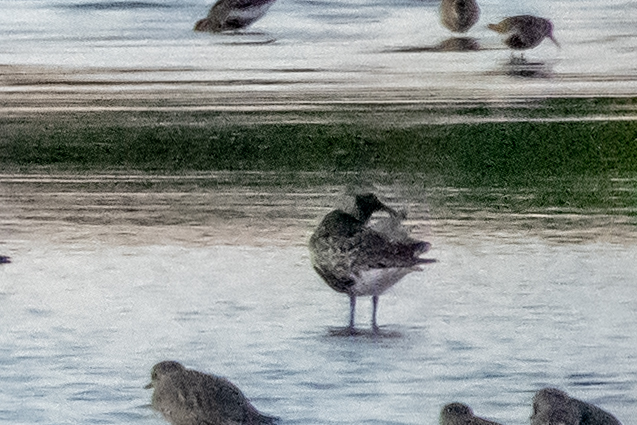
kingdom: Animalia
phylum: Chordata
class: Aves
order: Charadriiformes
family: Charadriidae
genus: Pluvialis
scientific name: Pluvialis squatarola
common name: Grey plover
